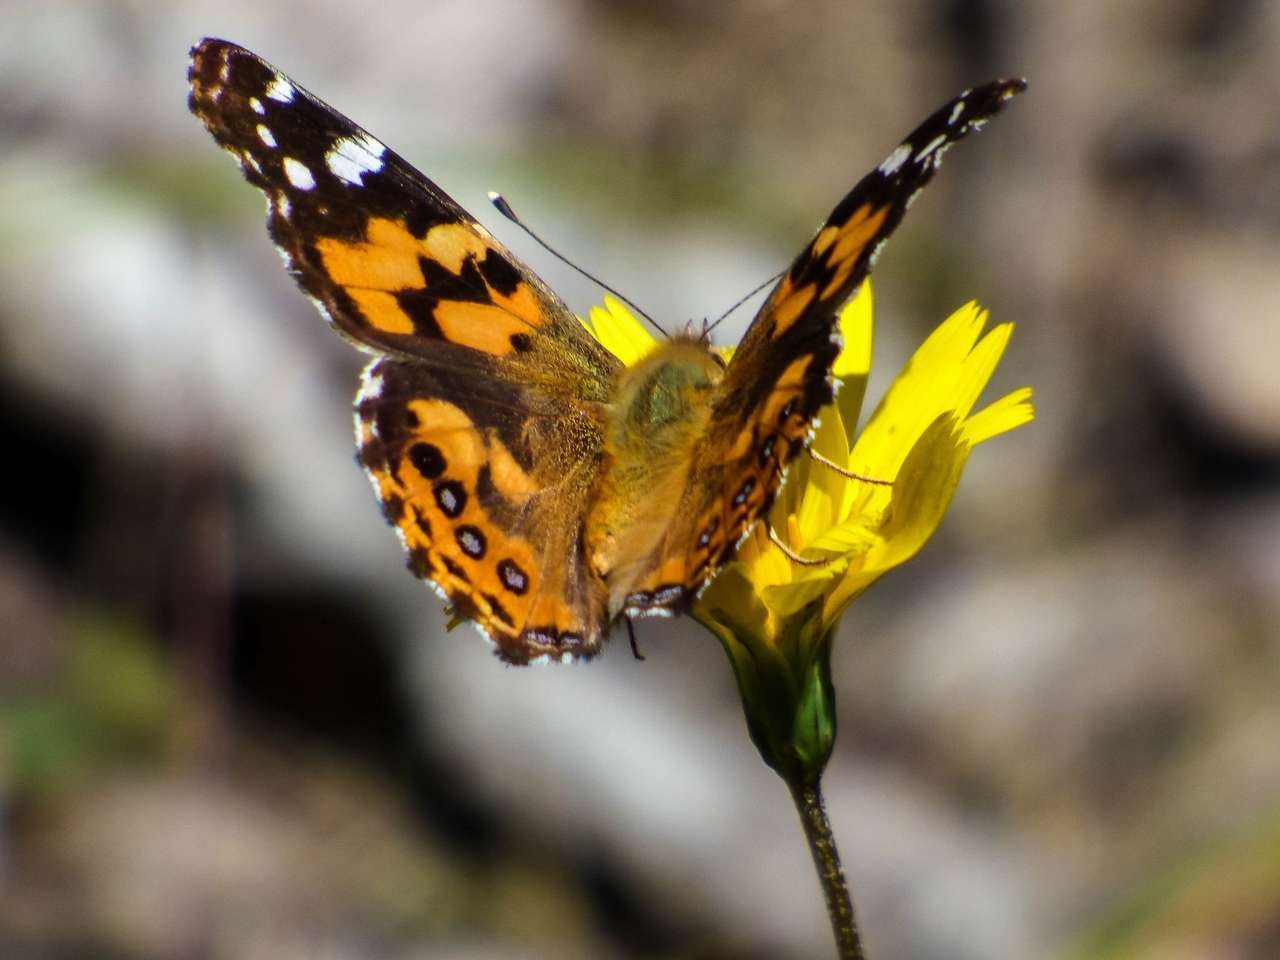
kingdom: Animalia
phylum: Arthropoda
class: Insecta
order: Lepidoptera
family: Nymphalidae
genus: Vanessa
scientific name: Vanessa kershawi
